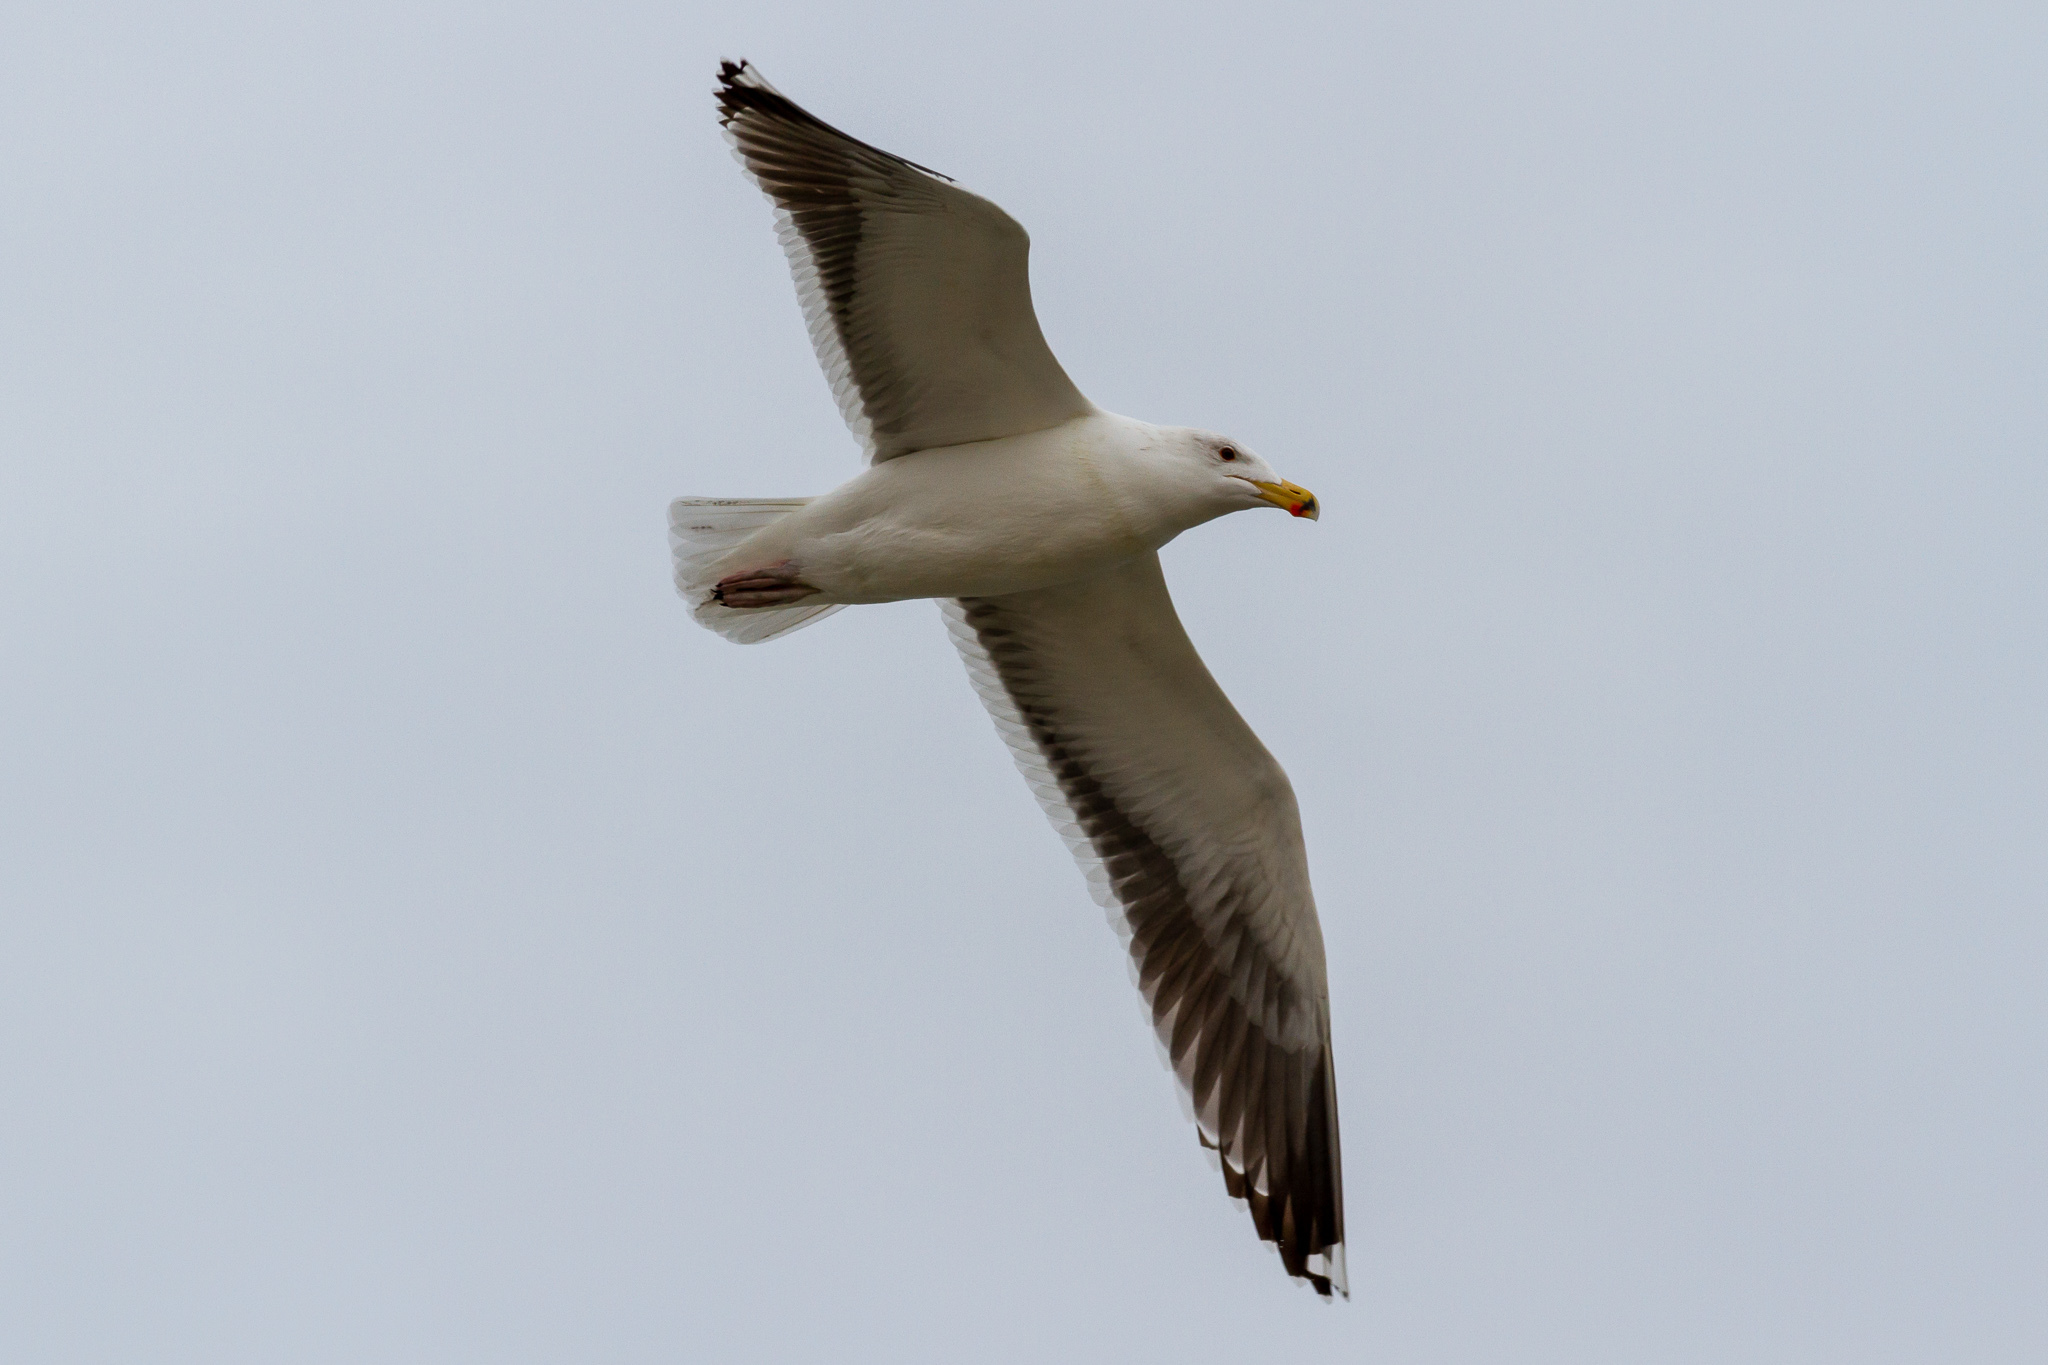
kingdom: Animalia
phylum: Chordata
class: Aves
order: Charadriiformes
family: Laridae
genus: Larus
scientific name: Larus marinus
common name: Great black-backed gull
